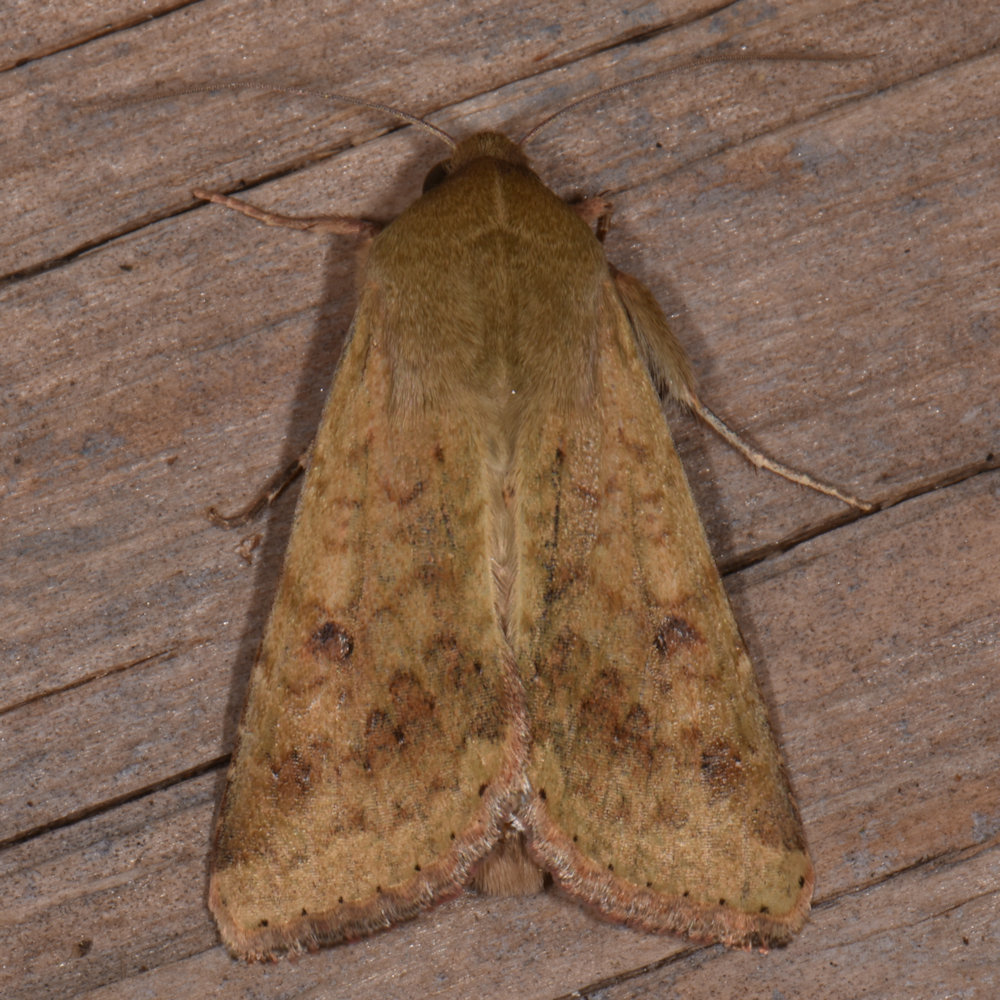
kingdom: Animalia
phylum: Arthropoda
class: Insecta
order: Lepidoptera
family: Noctuidae
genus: Helicoverpa
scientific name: Helicoverpa zea
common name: Bollworm
